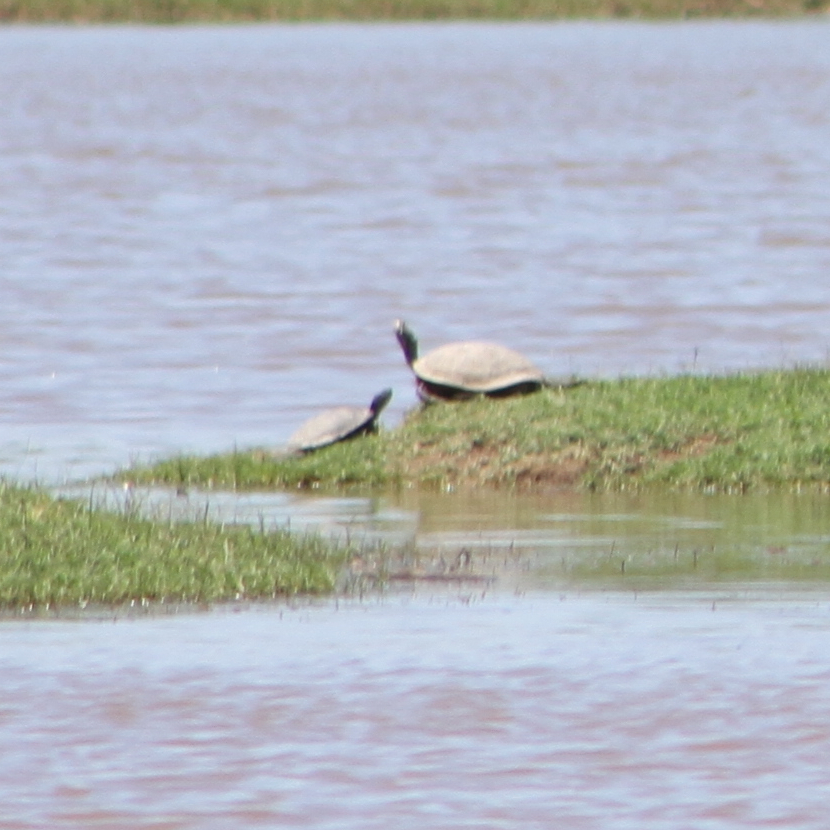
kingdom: Animalia
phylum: Chordata
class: Testudines
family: Emydidae
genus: Trachemys
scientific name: Trachemys scripta
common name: Slider
